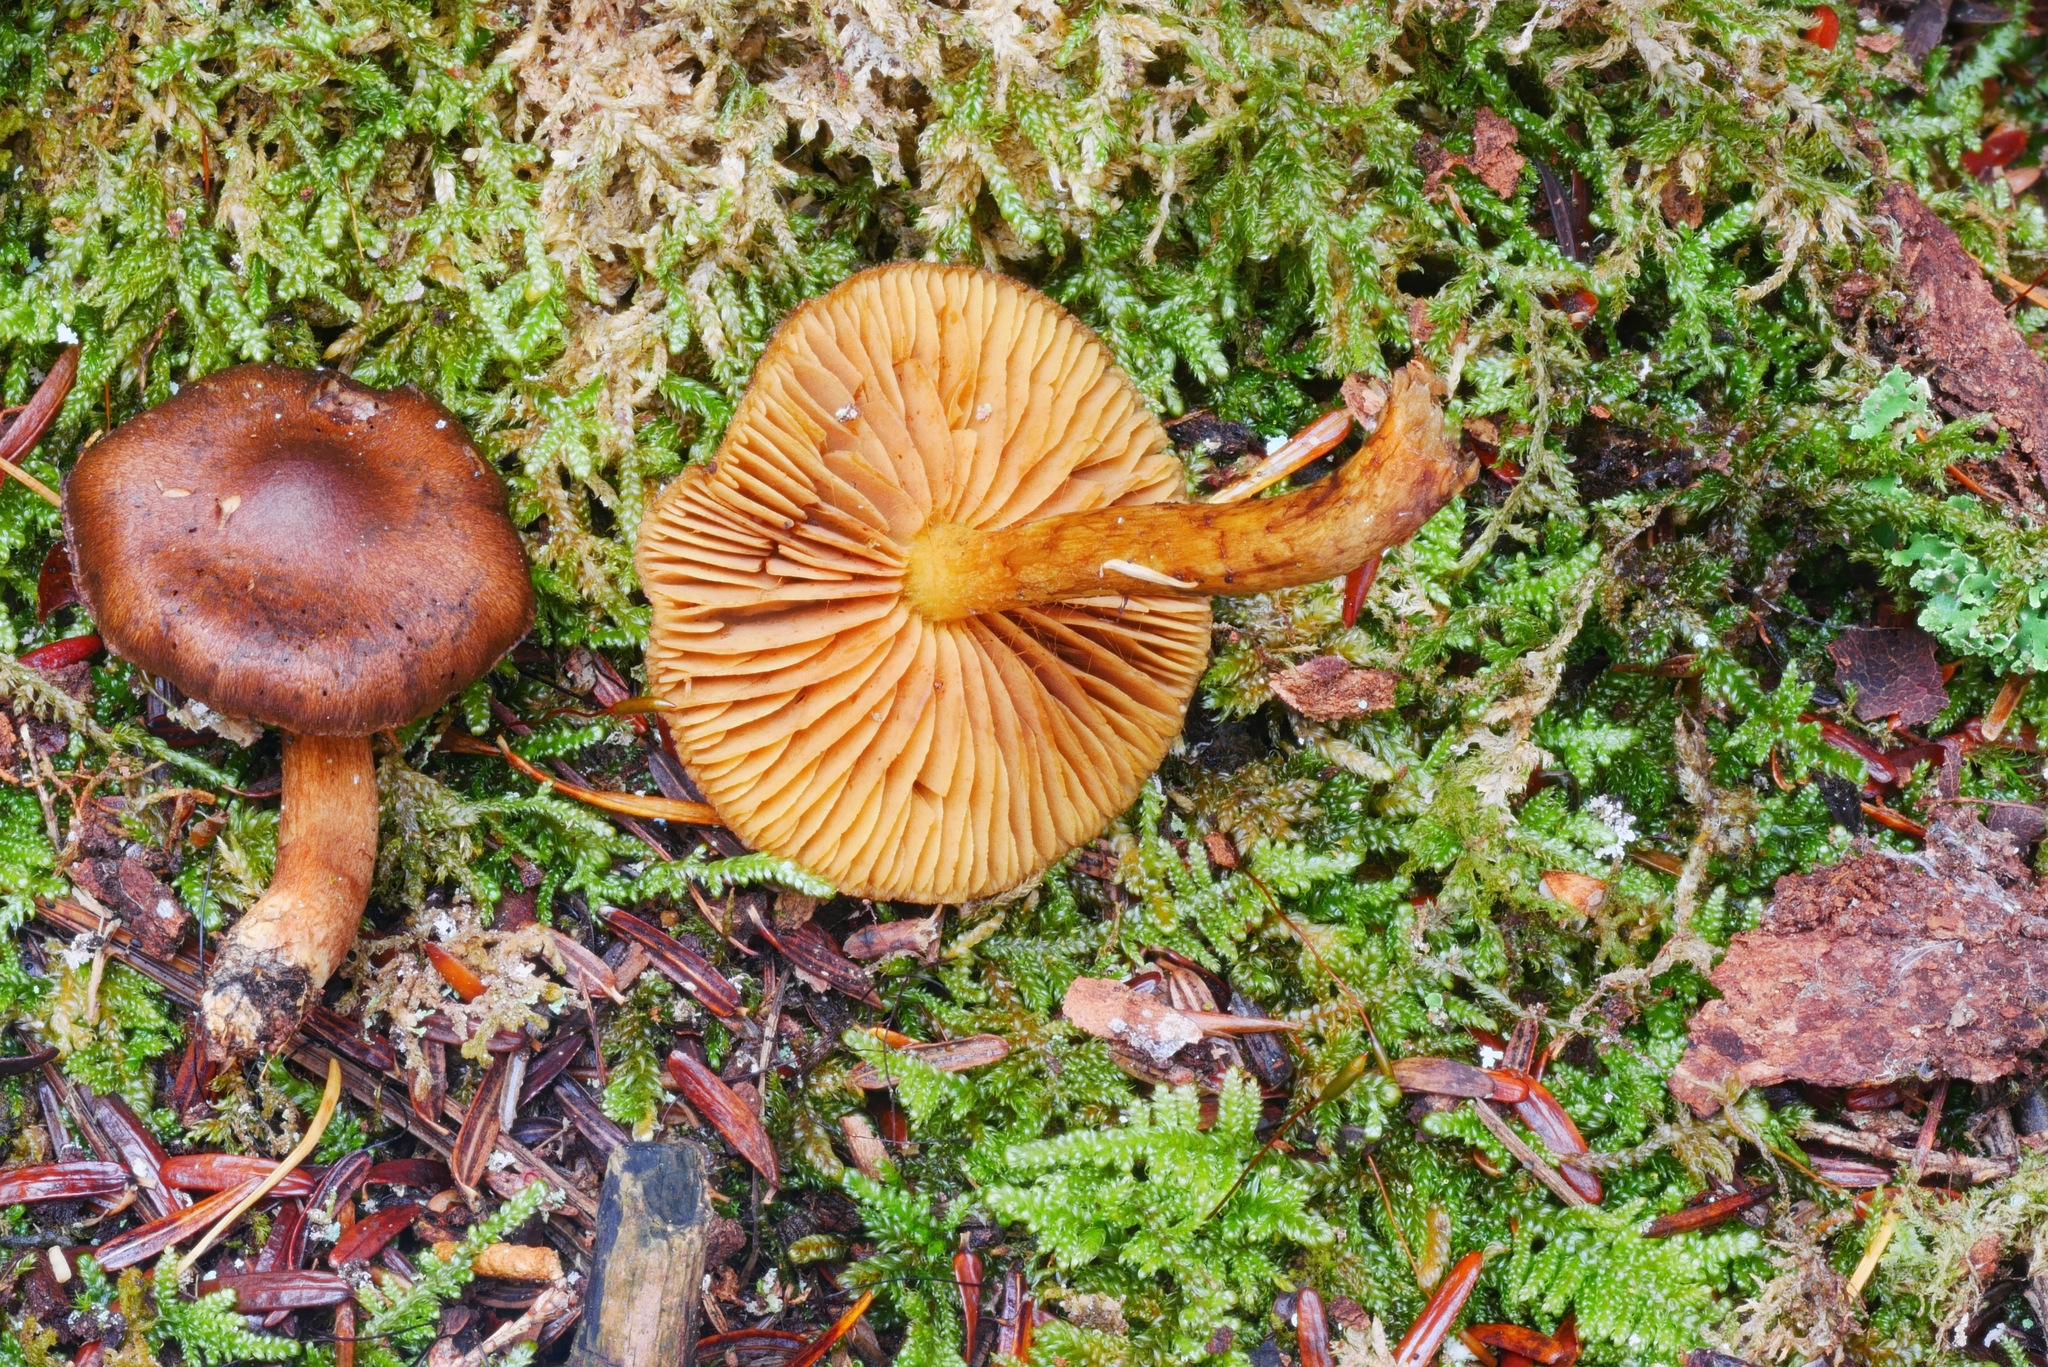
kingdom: Fungi
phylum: Basidiomycota
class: Agaricomycetes
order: Agaricales
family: Cortinariaceae
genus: Cortinarius
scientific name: Cortinarius chrysolitus
